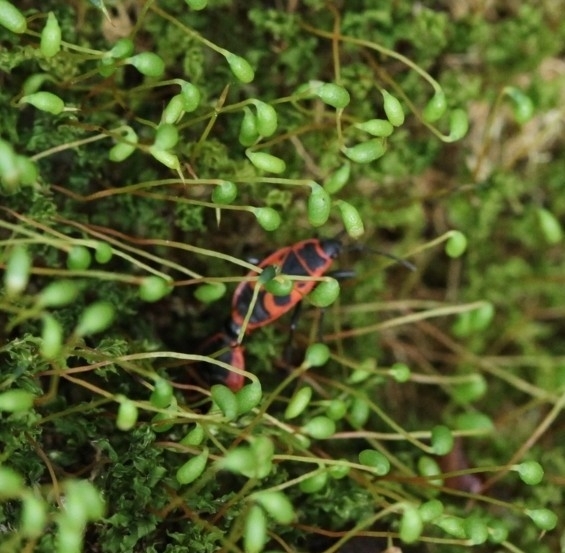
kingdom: Animalia
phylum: Arthropoda
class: Insecta
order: Hemiptera
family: Pyrrhocoridae
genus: Pyrrhocoris
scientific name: Pyrrhocoris apterus
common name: Firebug
